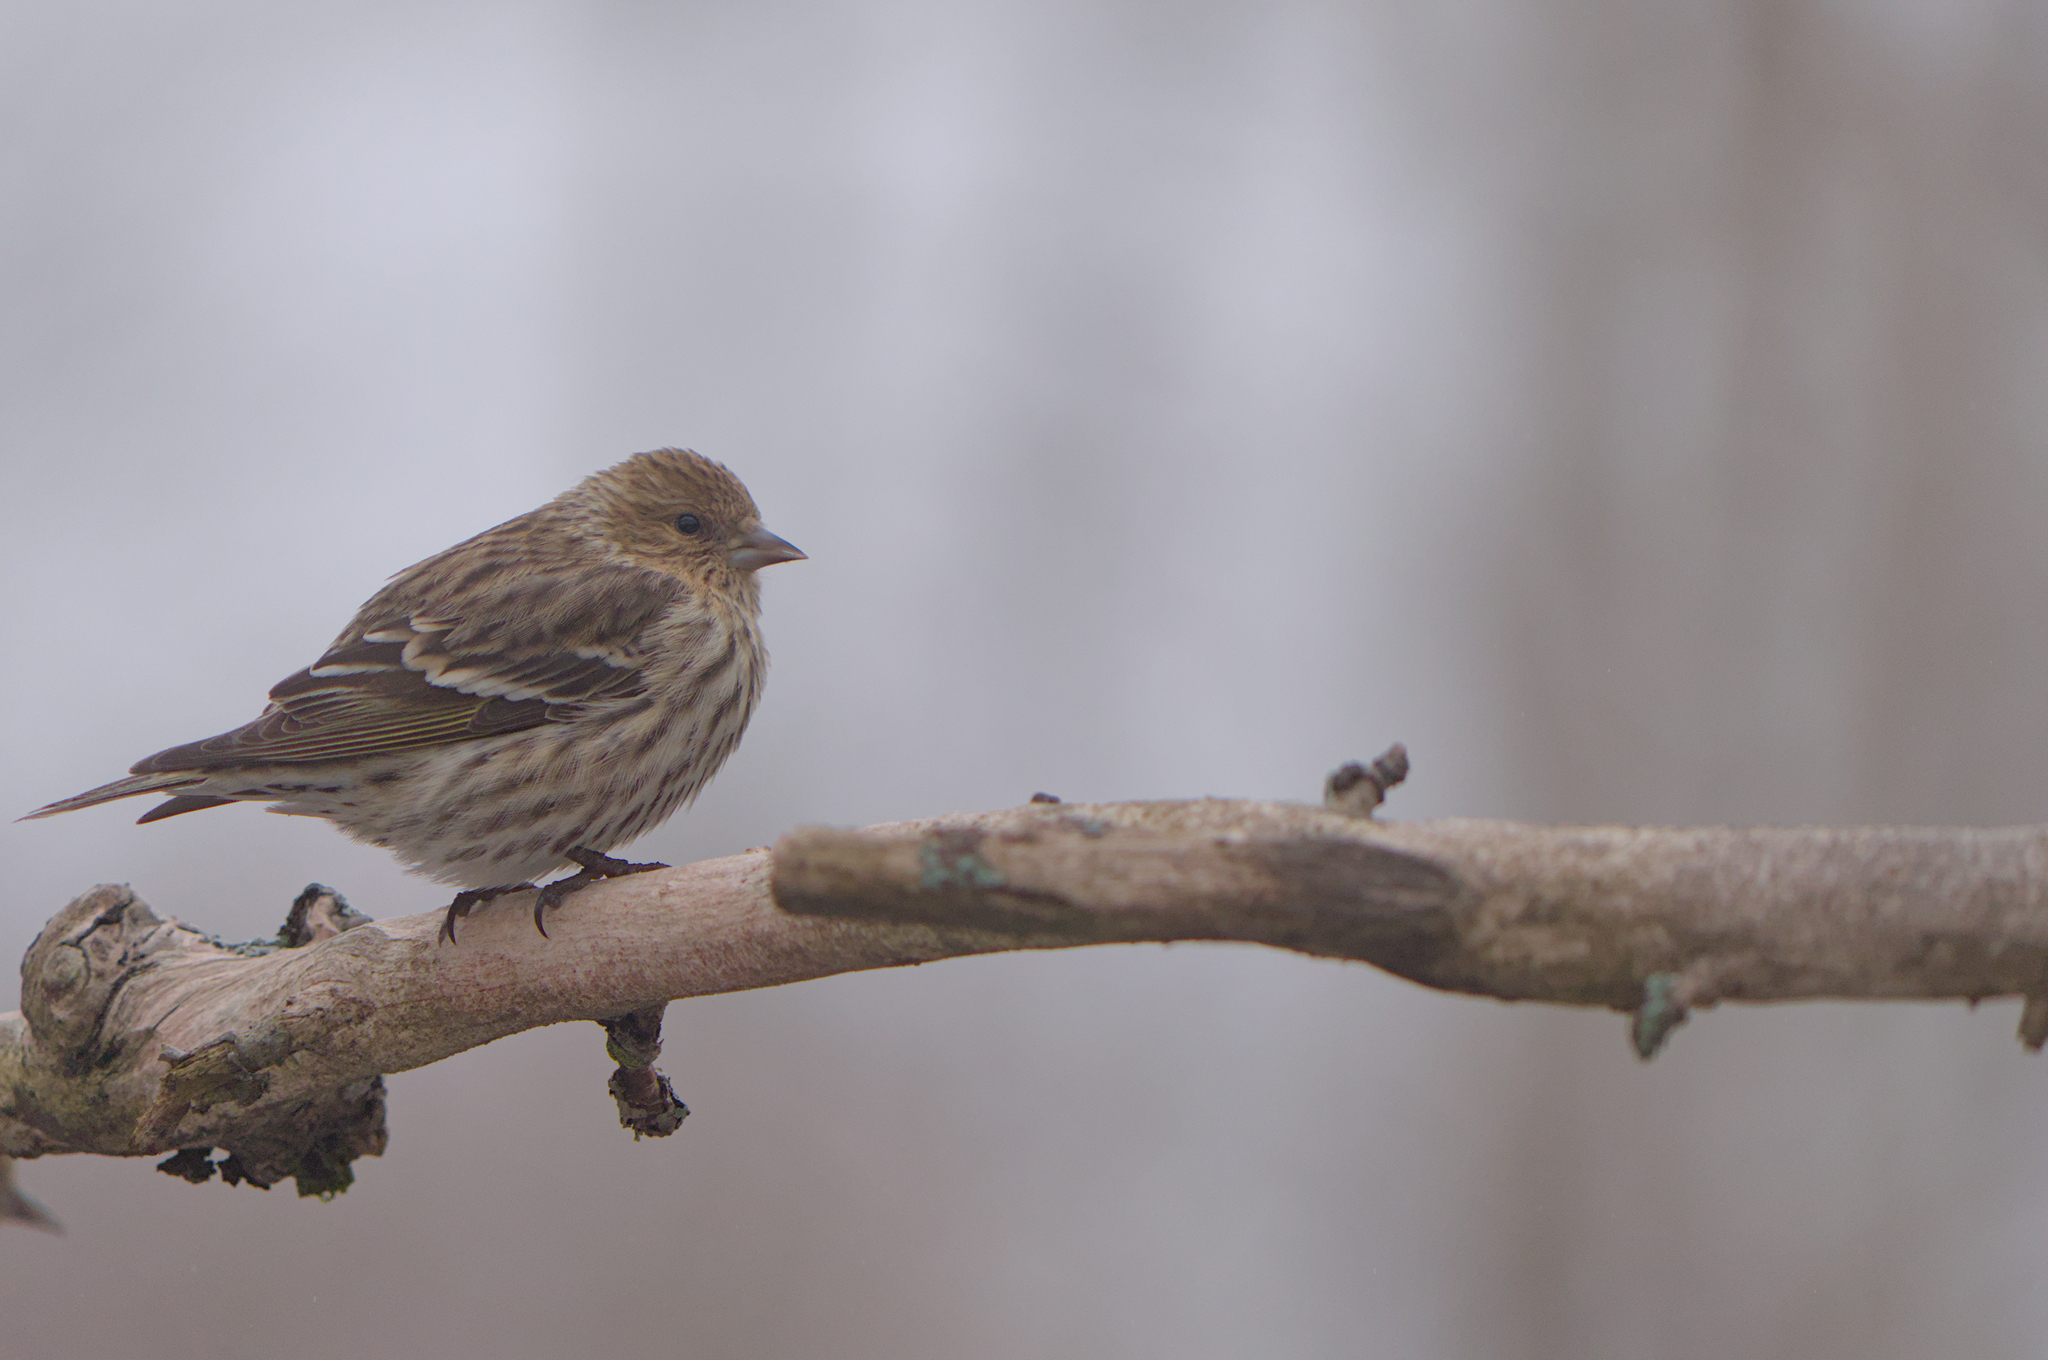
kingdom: Animalia
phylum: Chordata
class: Aves
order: Passeriformes
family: Fringillidae
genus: Spinus
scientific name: Spinus pinus
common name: Pine siskin
